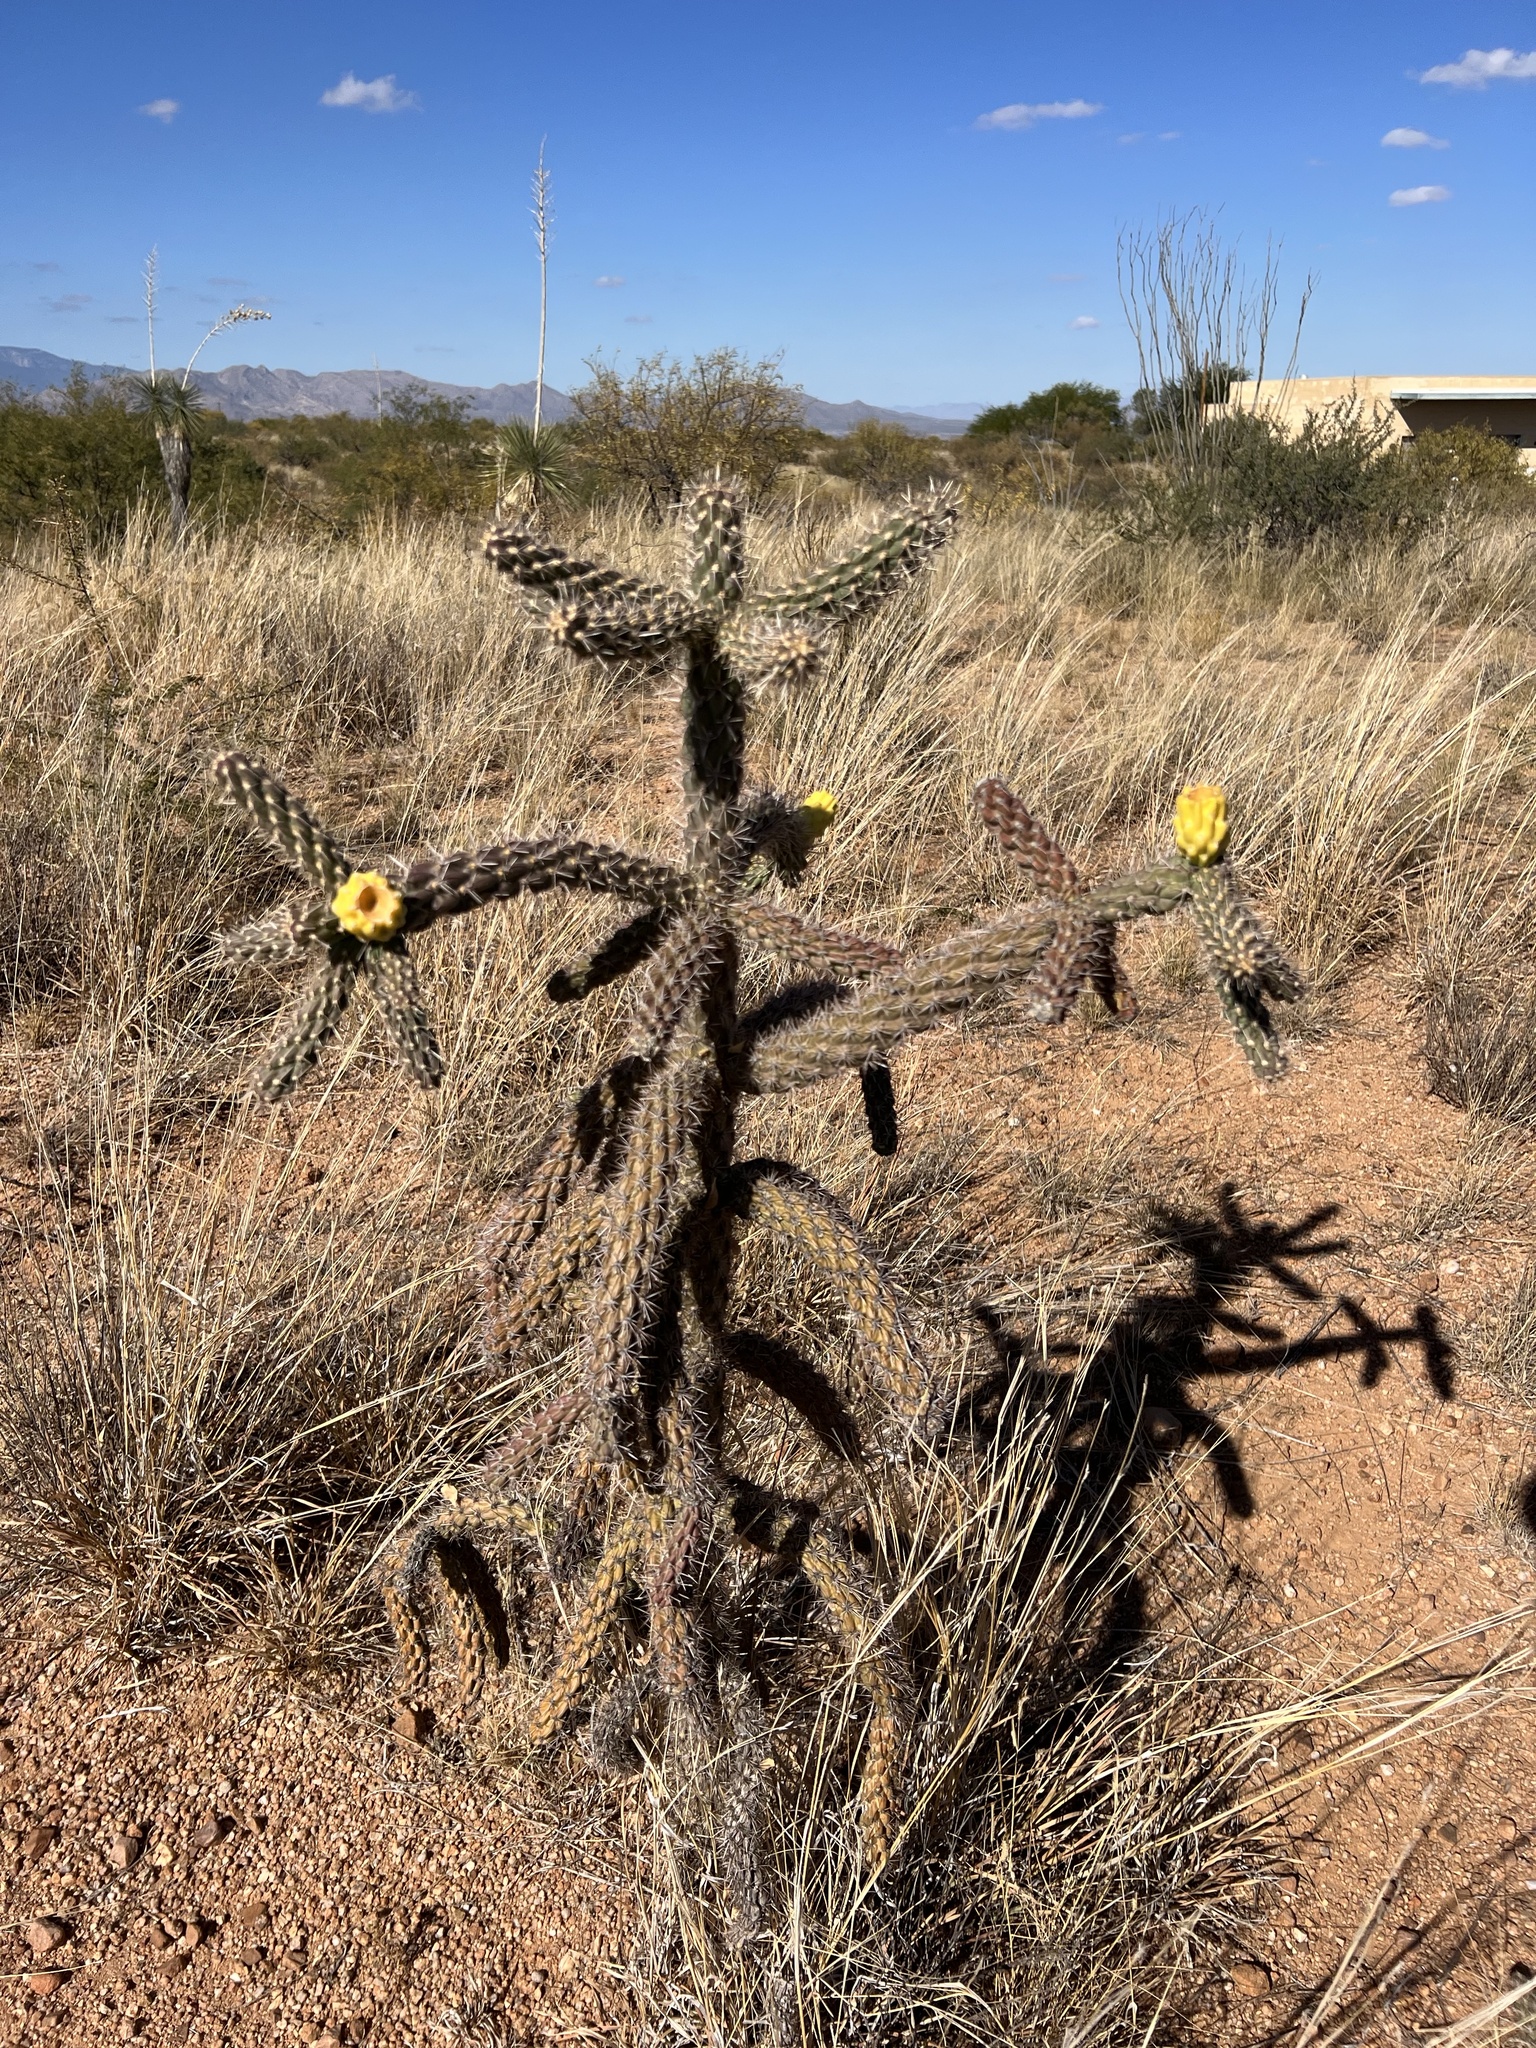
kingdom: Plantae
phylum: Tracheophyta
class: Magnoliopsida
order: Caryophyllales
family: Cactaceae
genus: Cylindropuntia
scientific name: Cylindropuntia imbricata
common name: Candelabrum cactus
